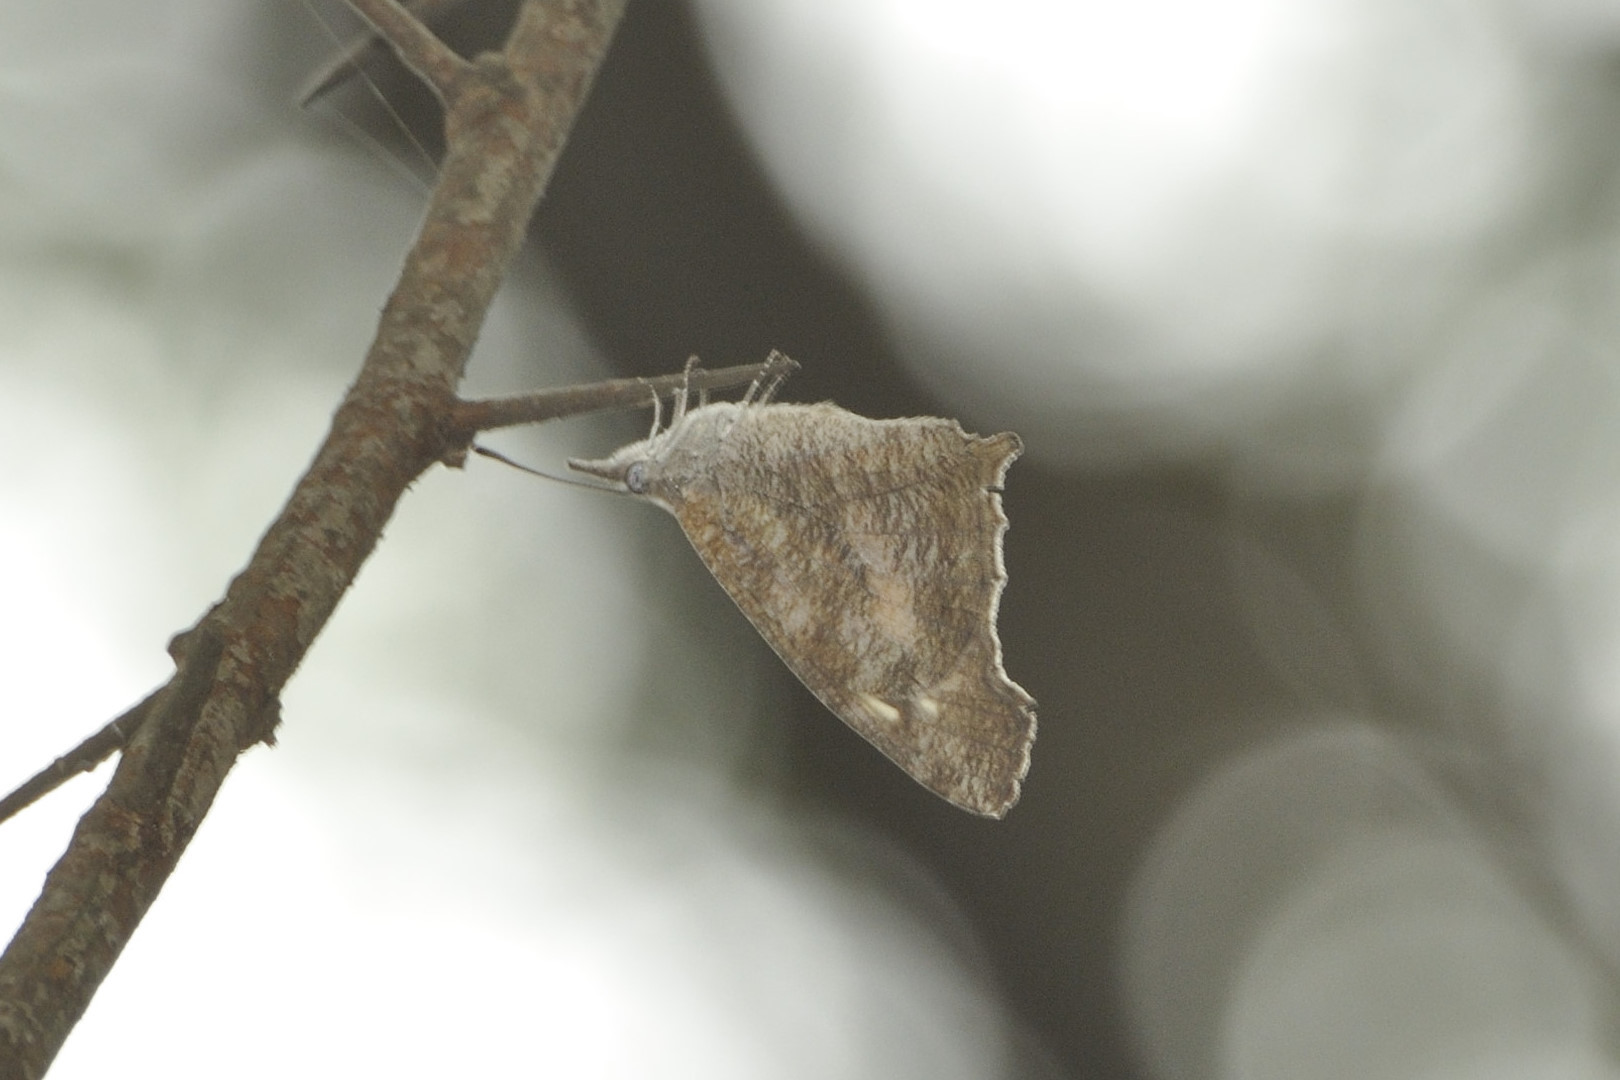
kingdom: Animalia
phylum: Arthropoda
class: Insecta
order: Lepidoptera
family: Nymphalidae
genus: Libythea
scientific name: Libythea laius
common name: African snout
